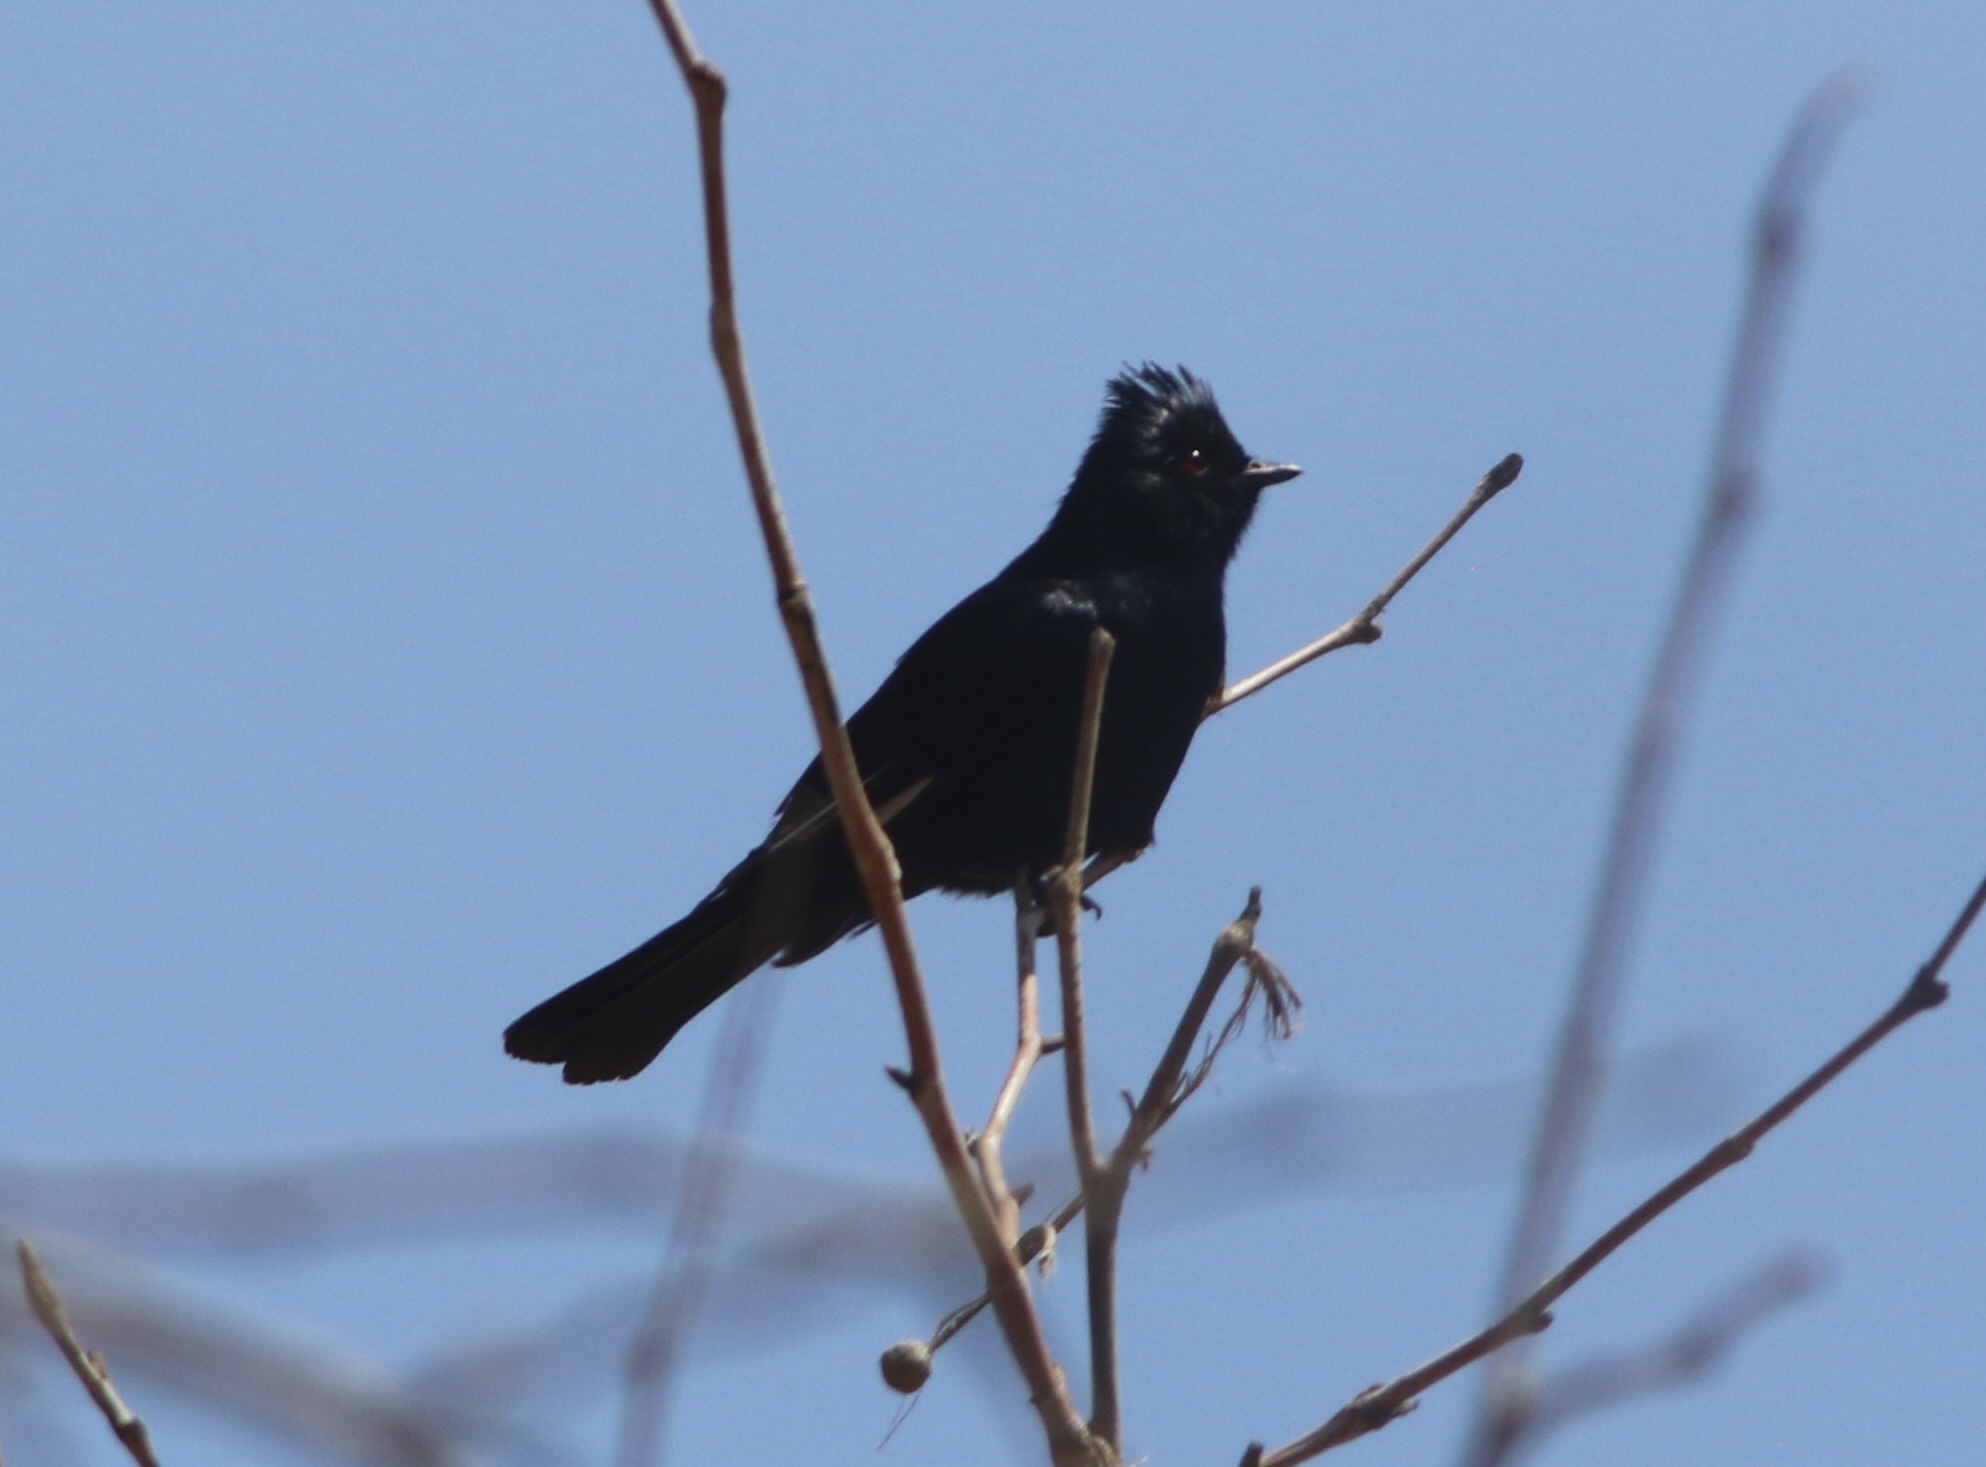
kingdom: Animalia
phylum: Chordata
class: Aves
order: Passeriformes
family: Ptilogonatidae
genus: Phainopepla
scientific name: Phainopepla nitens
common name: Phainopepla
